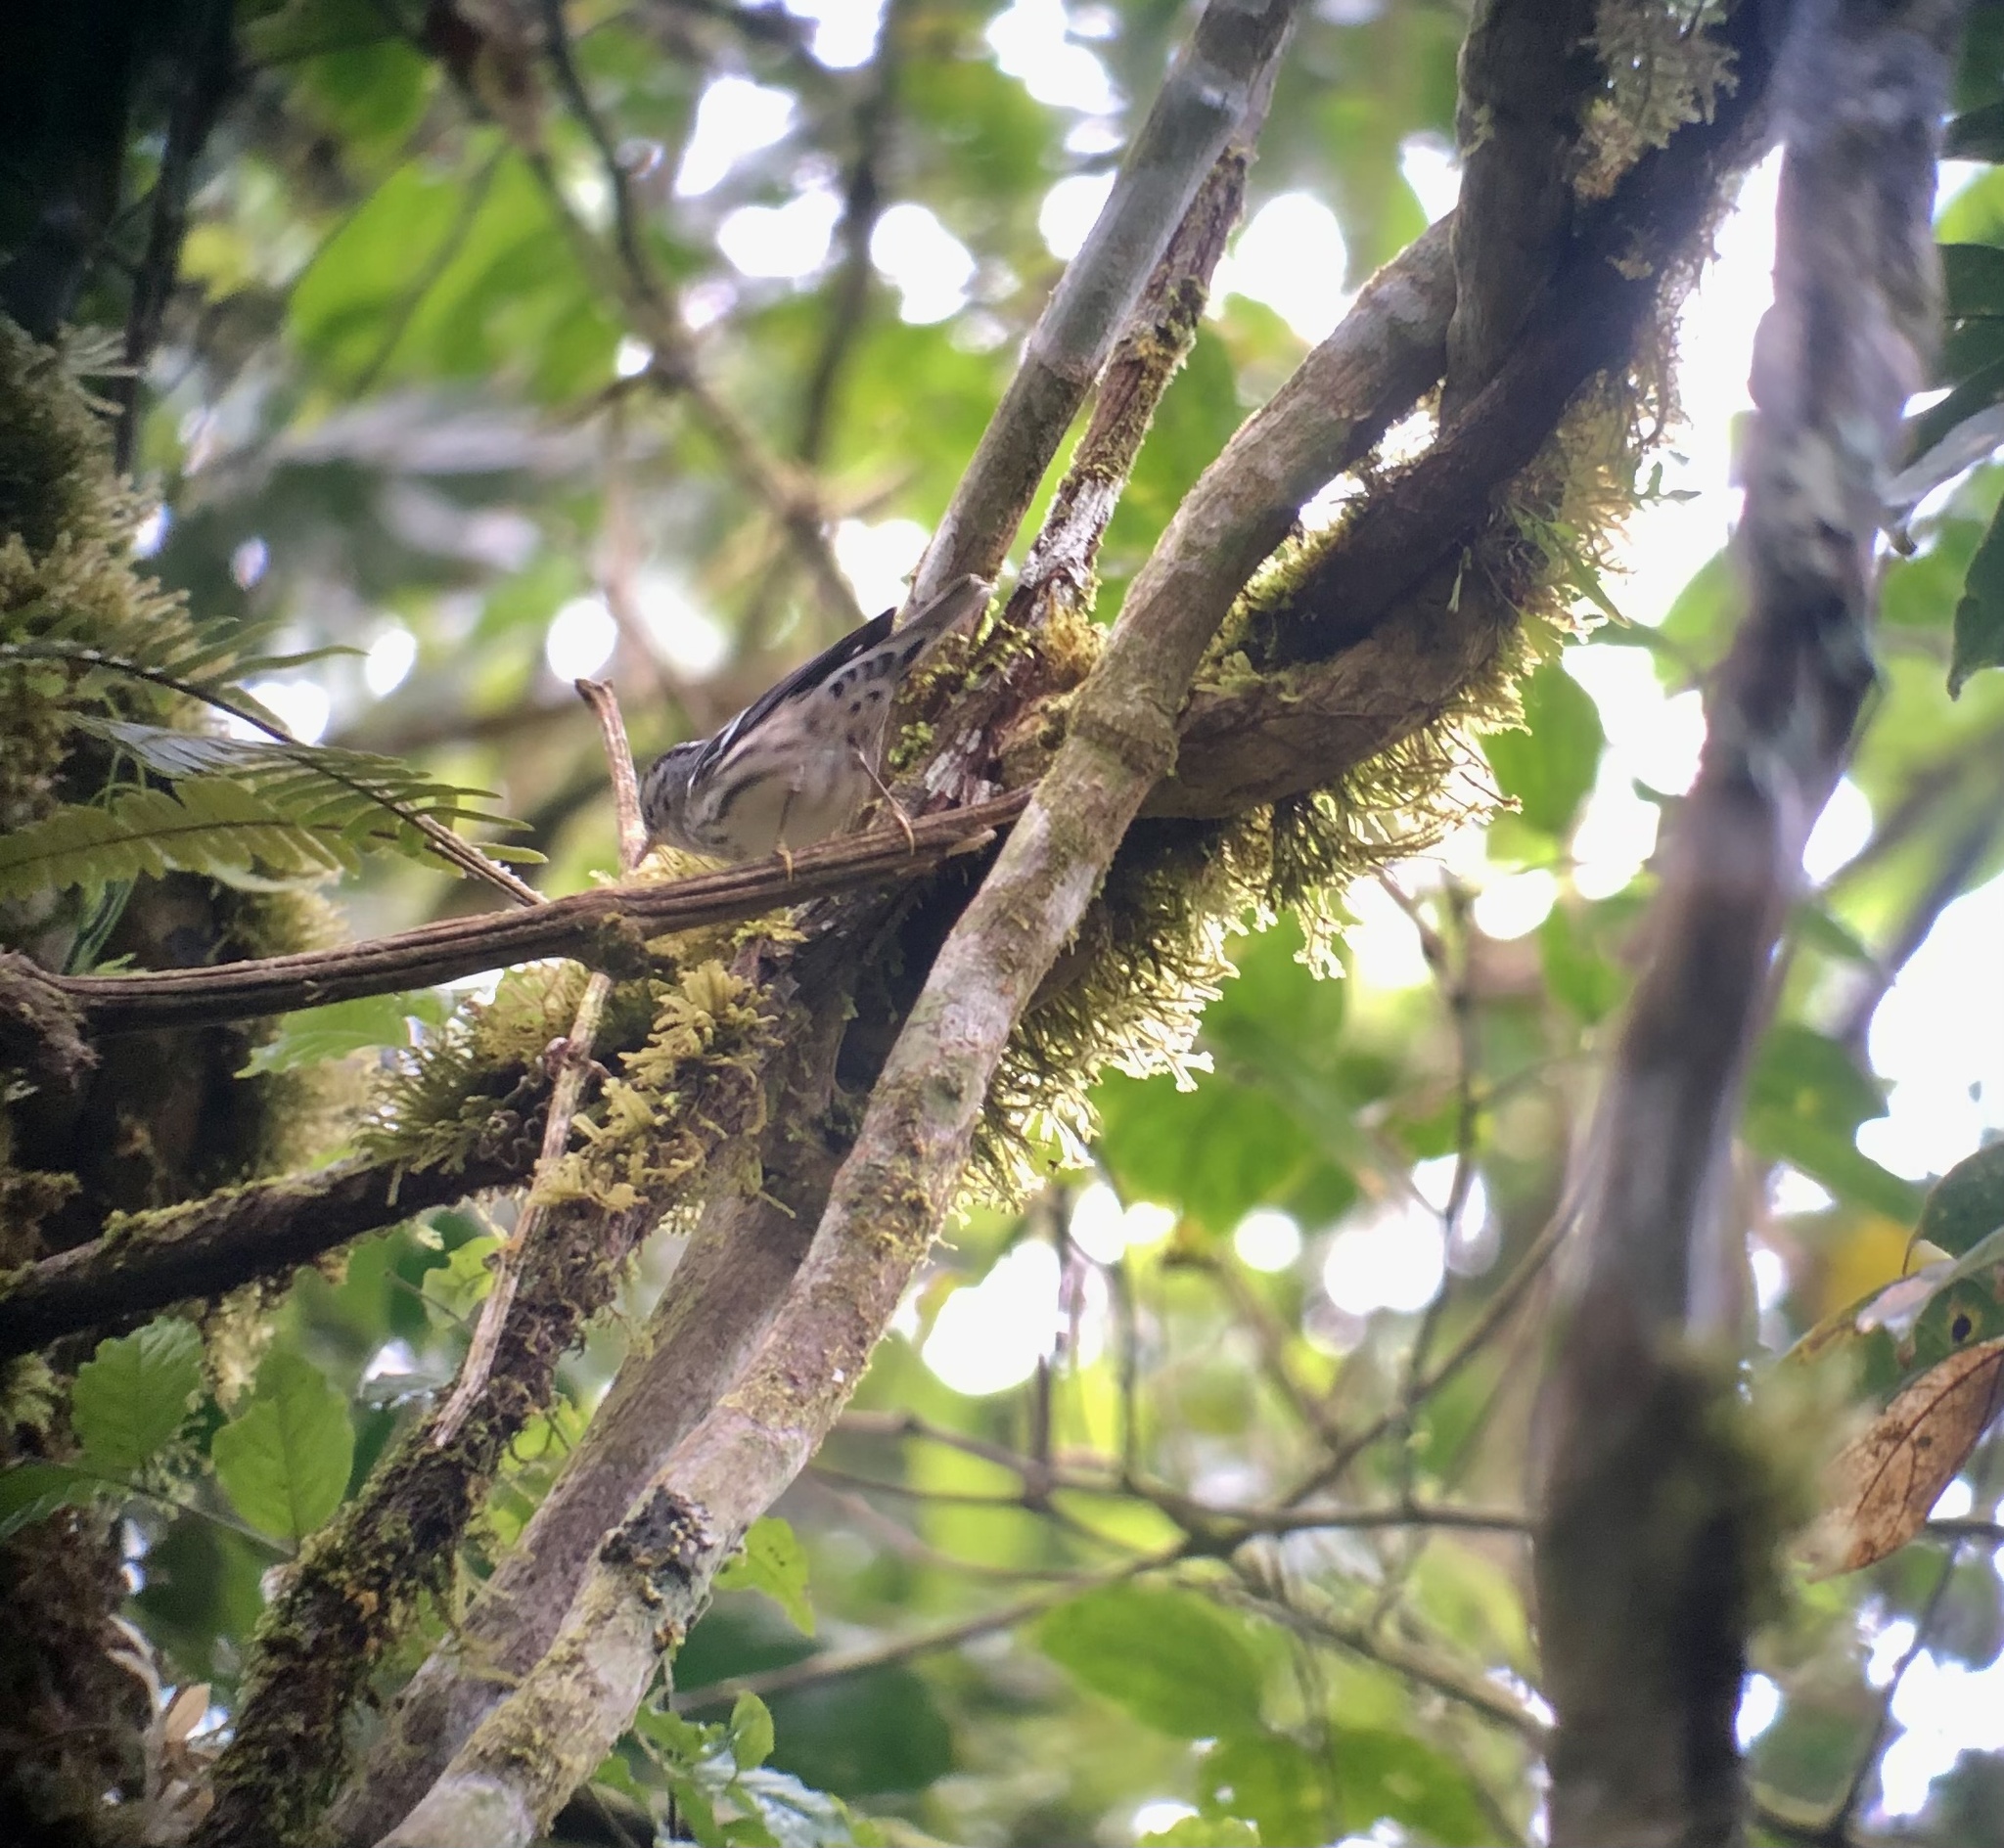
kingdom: Animalia
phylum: Chordata
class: Aves
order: Passeriformes
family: Parulidae
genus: Mniotilta
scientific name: Mniotilta varia
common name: Black-and-white warbler
